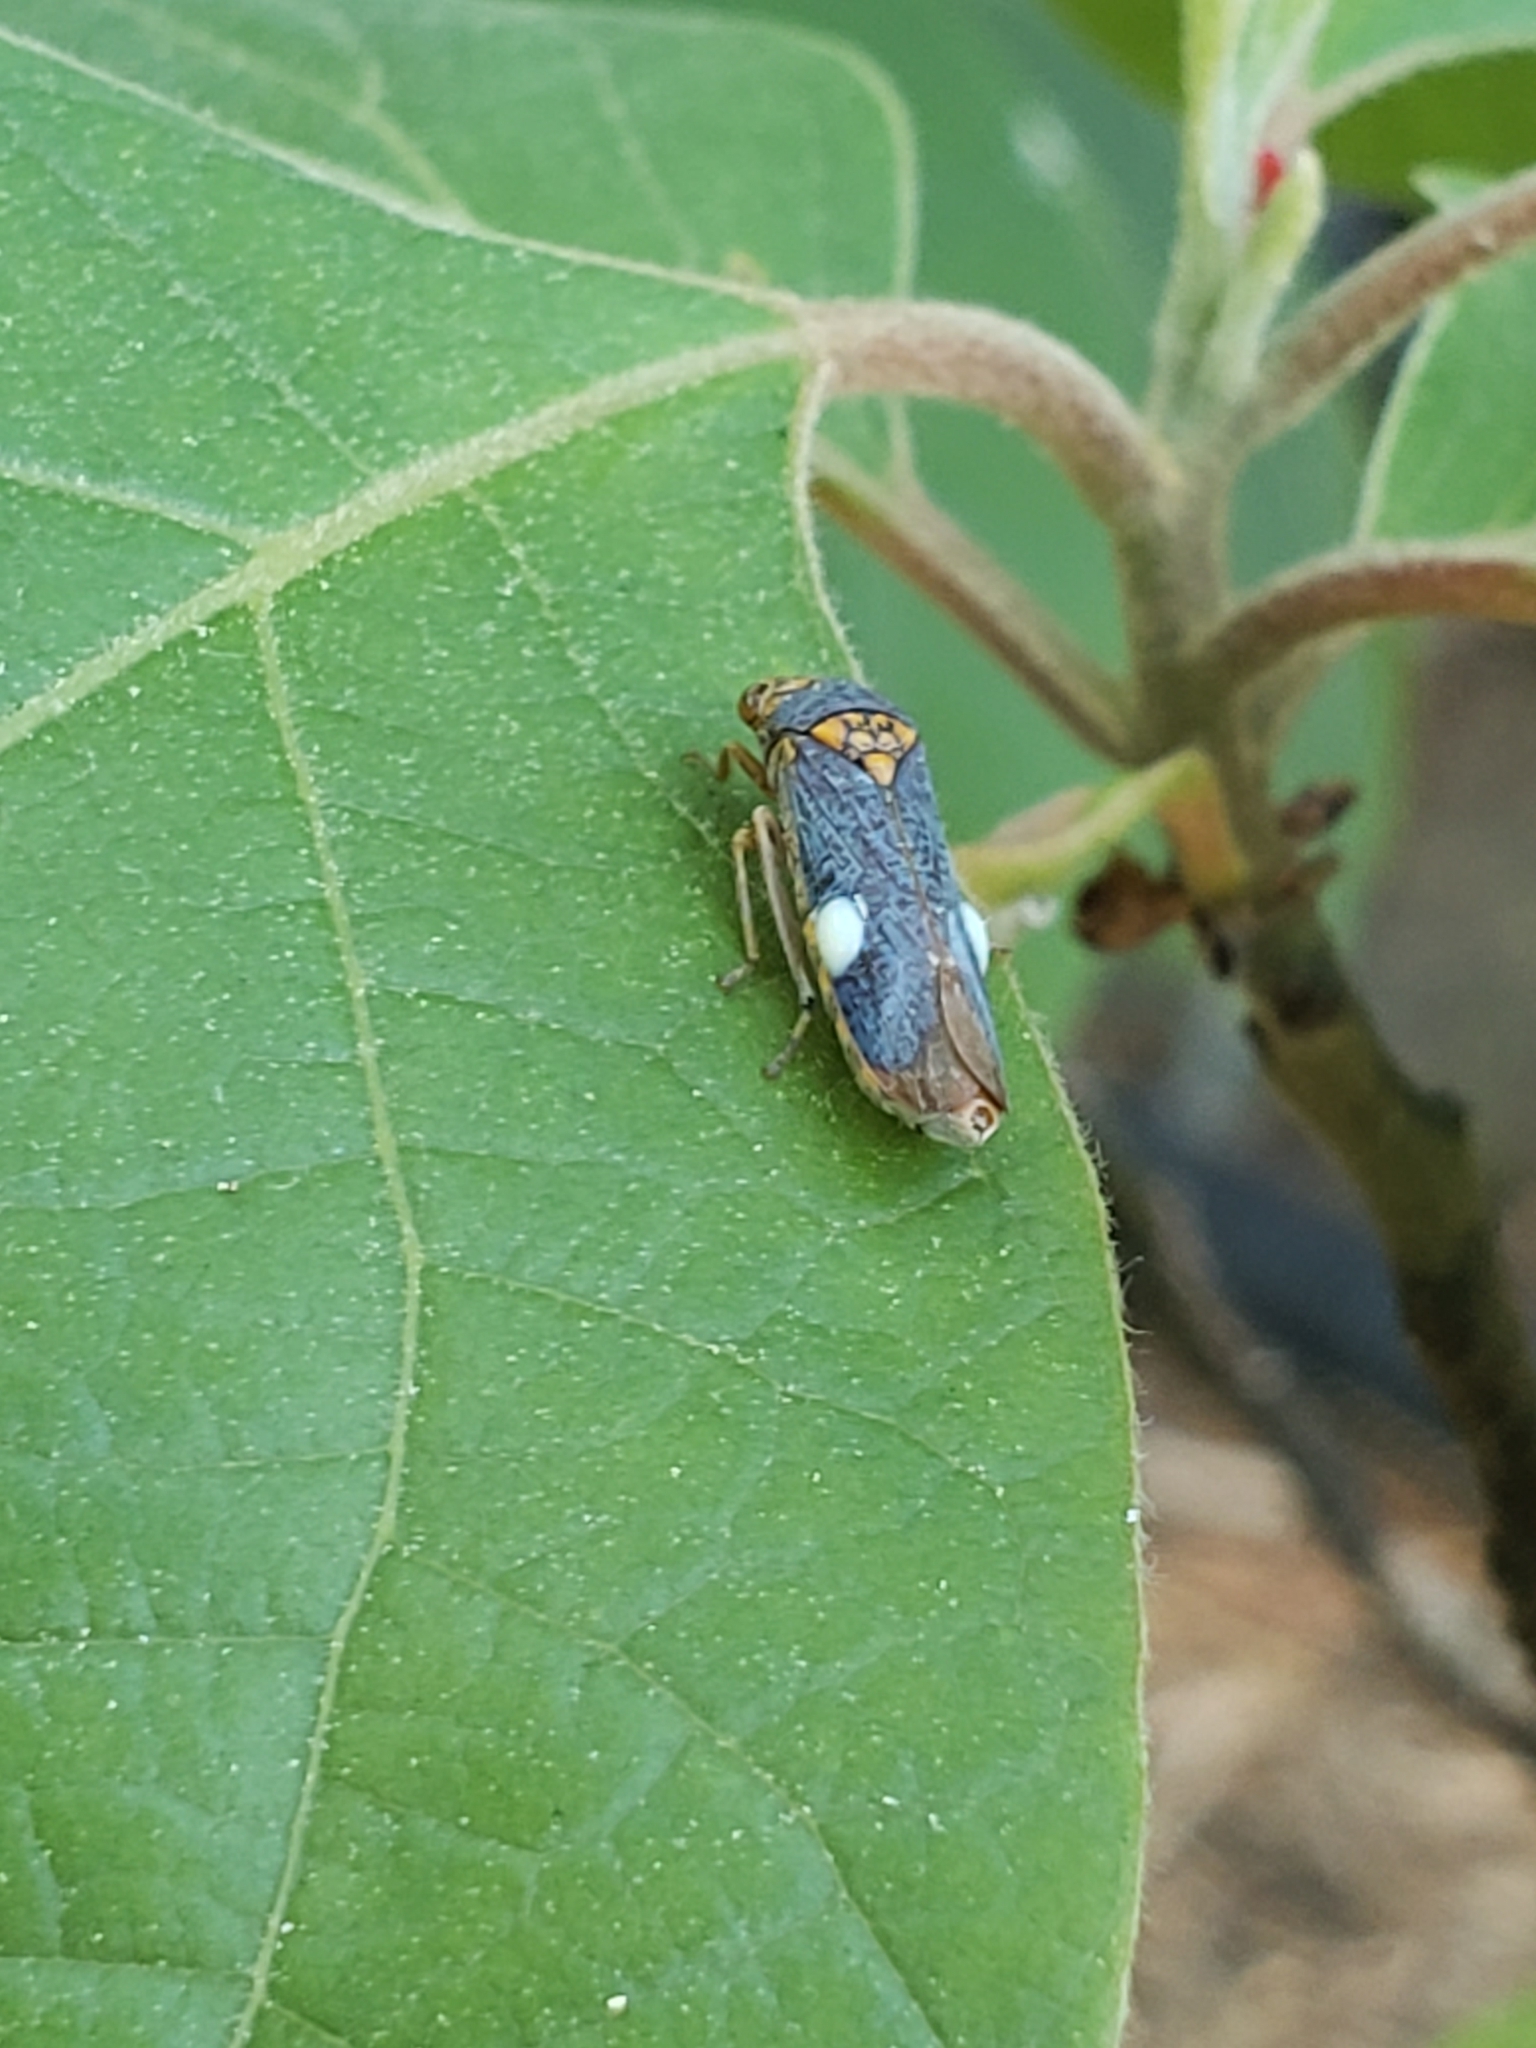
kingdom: Animalia
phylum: Arthropoda
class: Insecta
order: Hemiptera
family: Cicadellidae
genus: Oncometopia
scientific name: Oncometopia orbona
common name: Broad-headed sharpshooter
